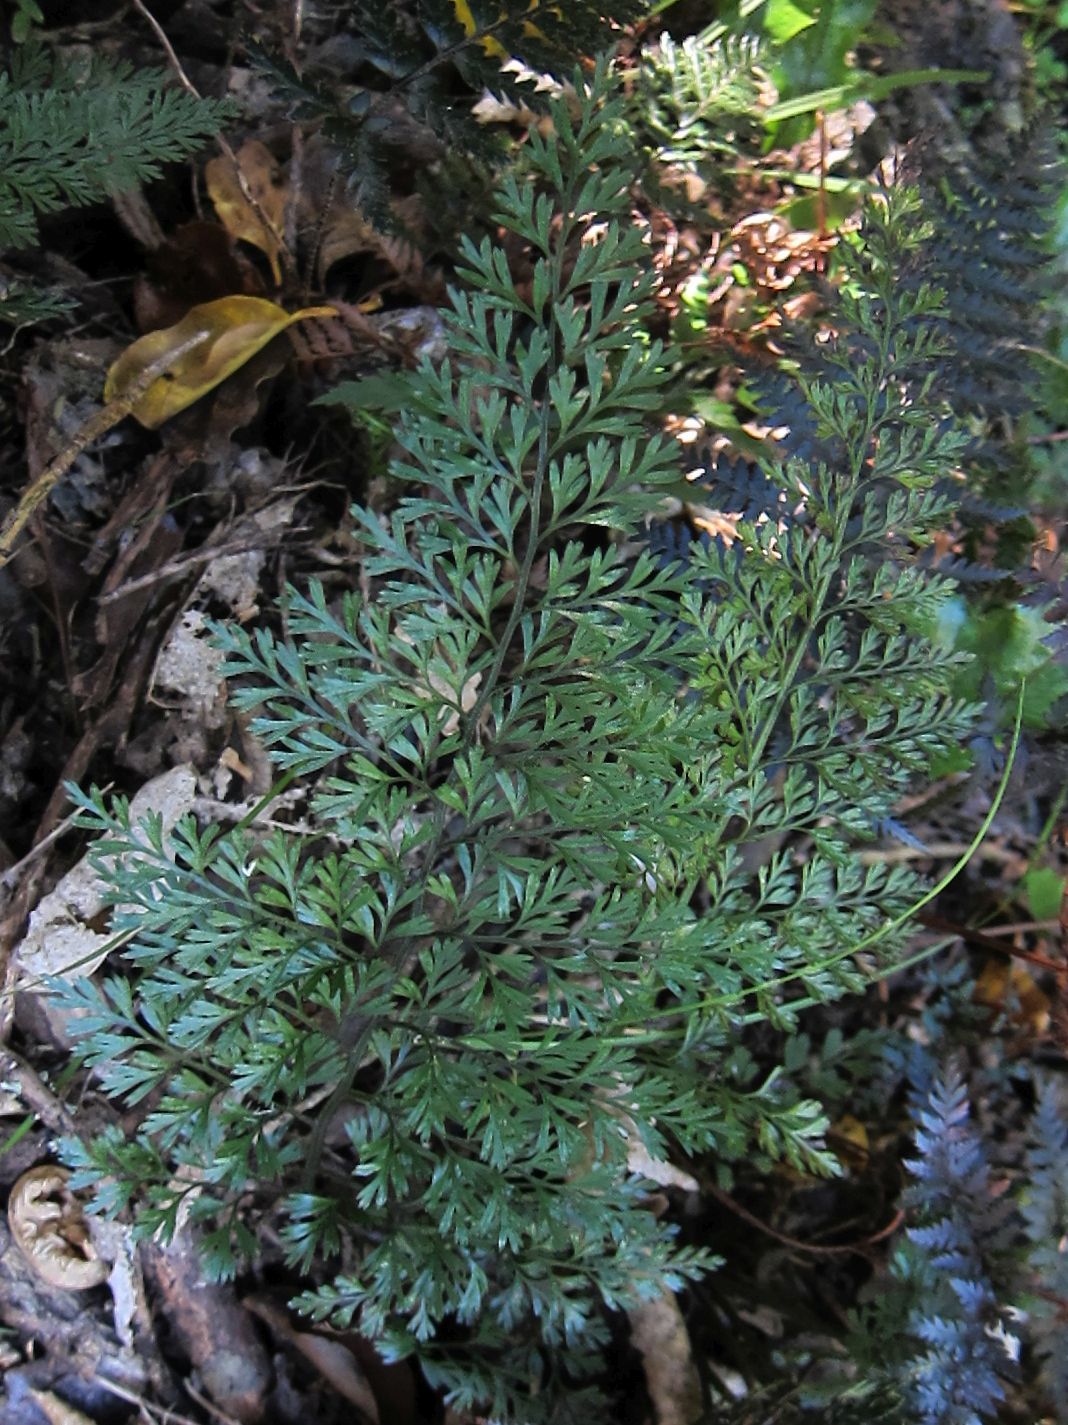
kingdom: Plantae
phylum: Tracheophyta
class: Polypodiopsida
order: Polypodiales
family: Aspleniaceae
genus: Asplenium
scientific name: Asplenium richardii
